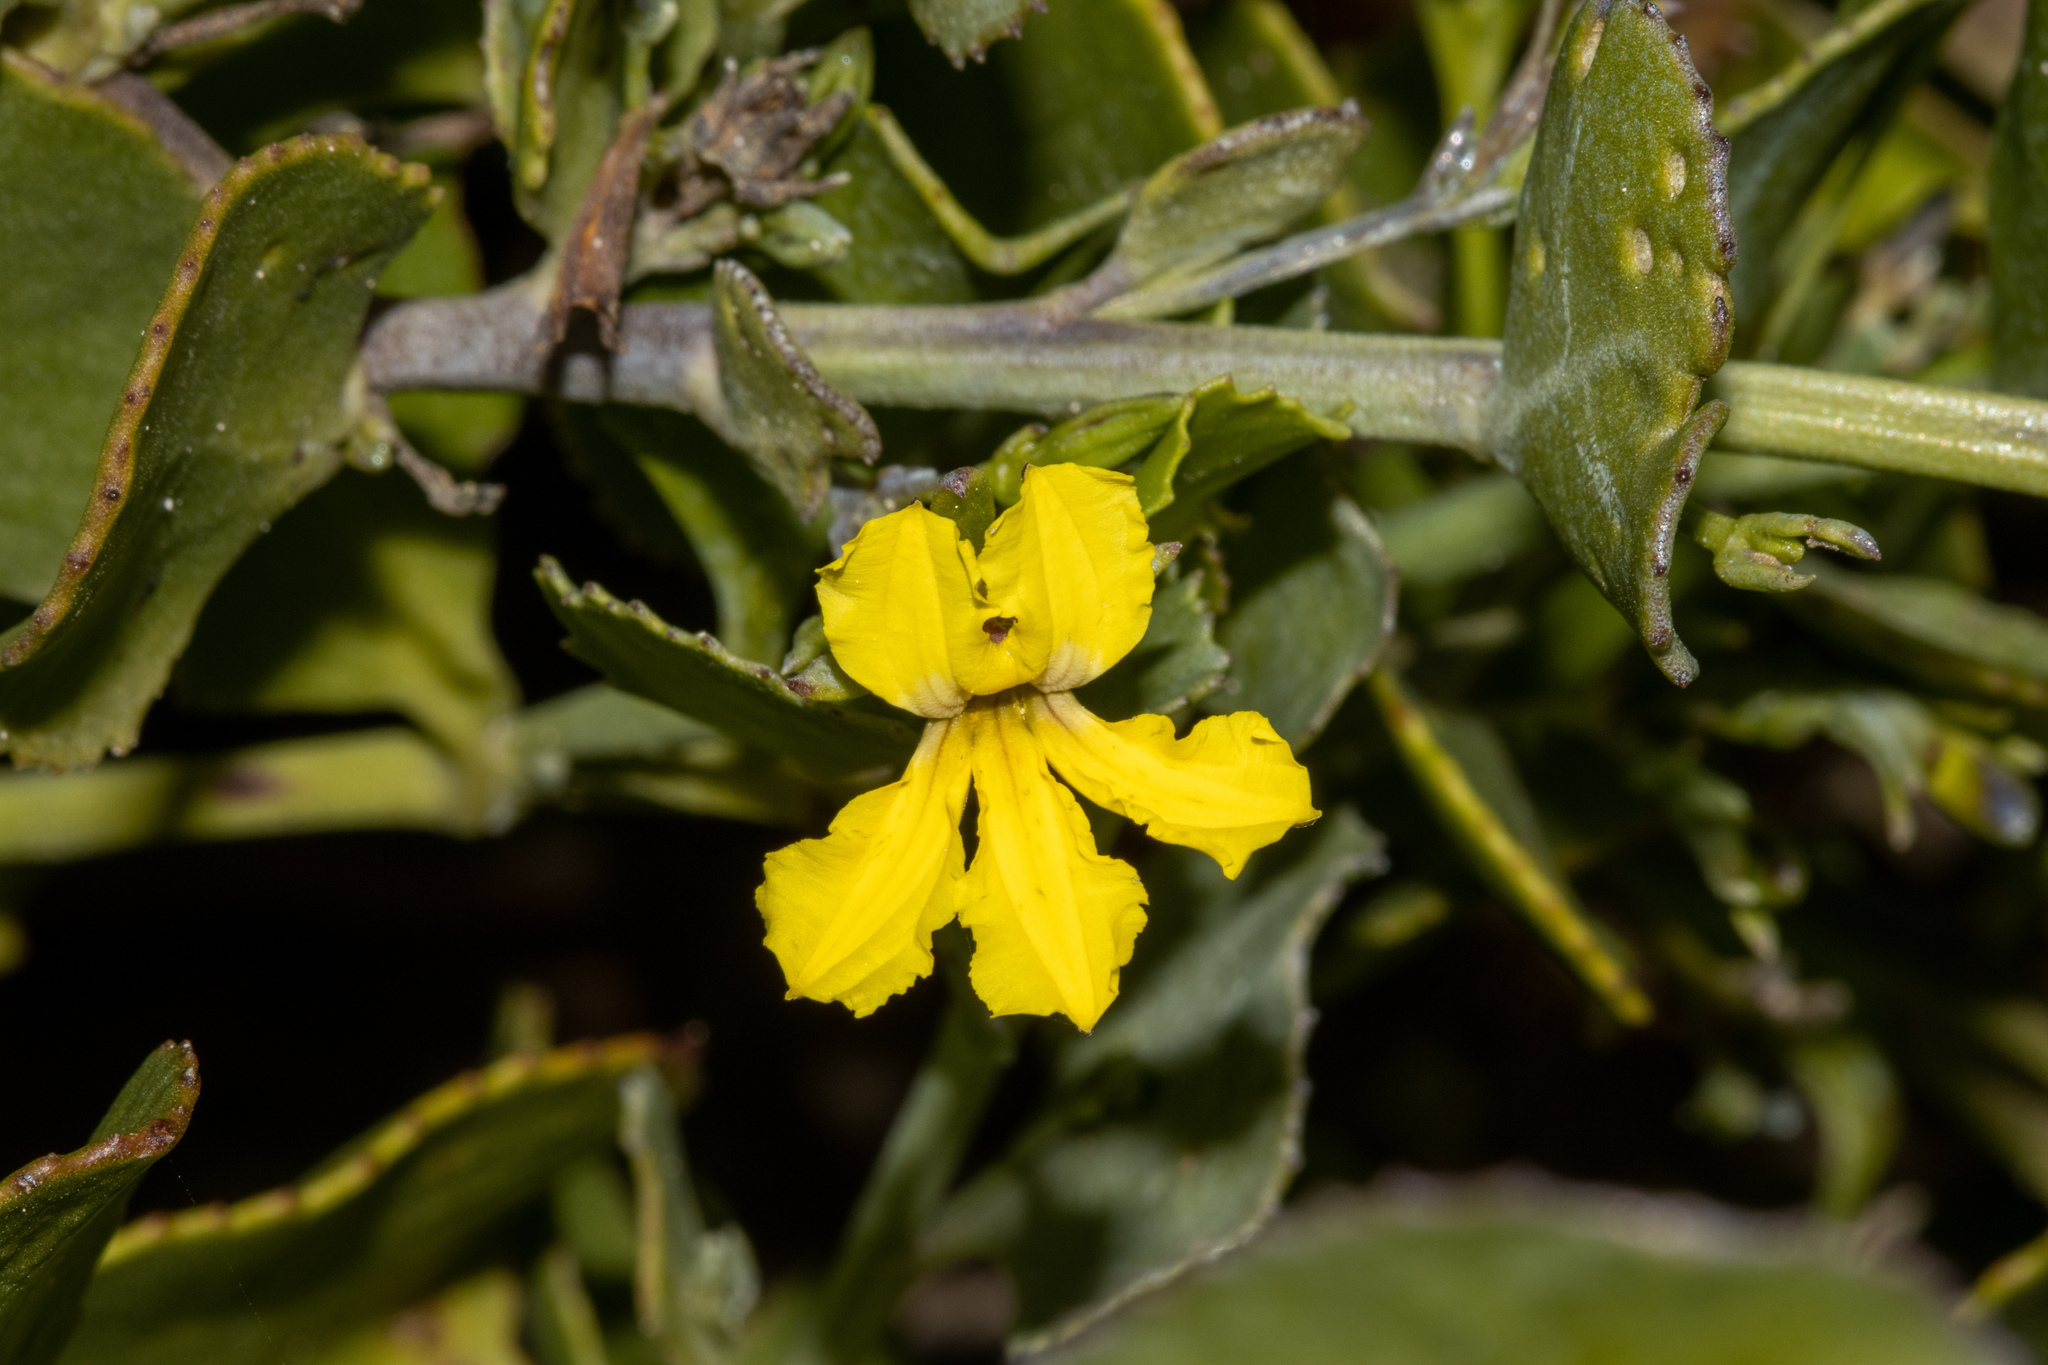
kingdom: Plantae
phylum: Tracheophyta
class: Magnoliopsida
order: Asterales
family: Goodeniaceae
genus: Goodenia
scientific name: Goodenia varia
